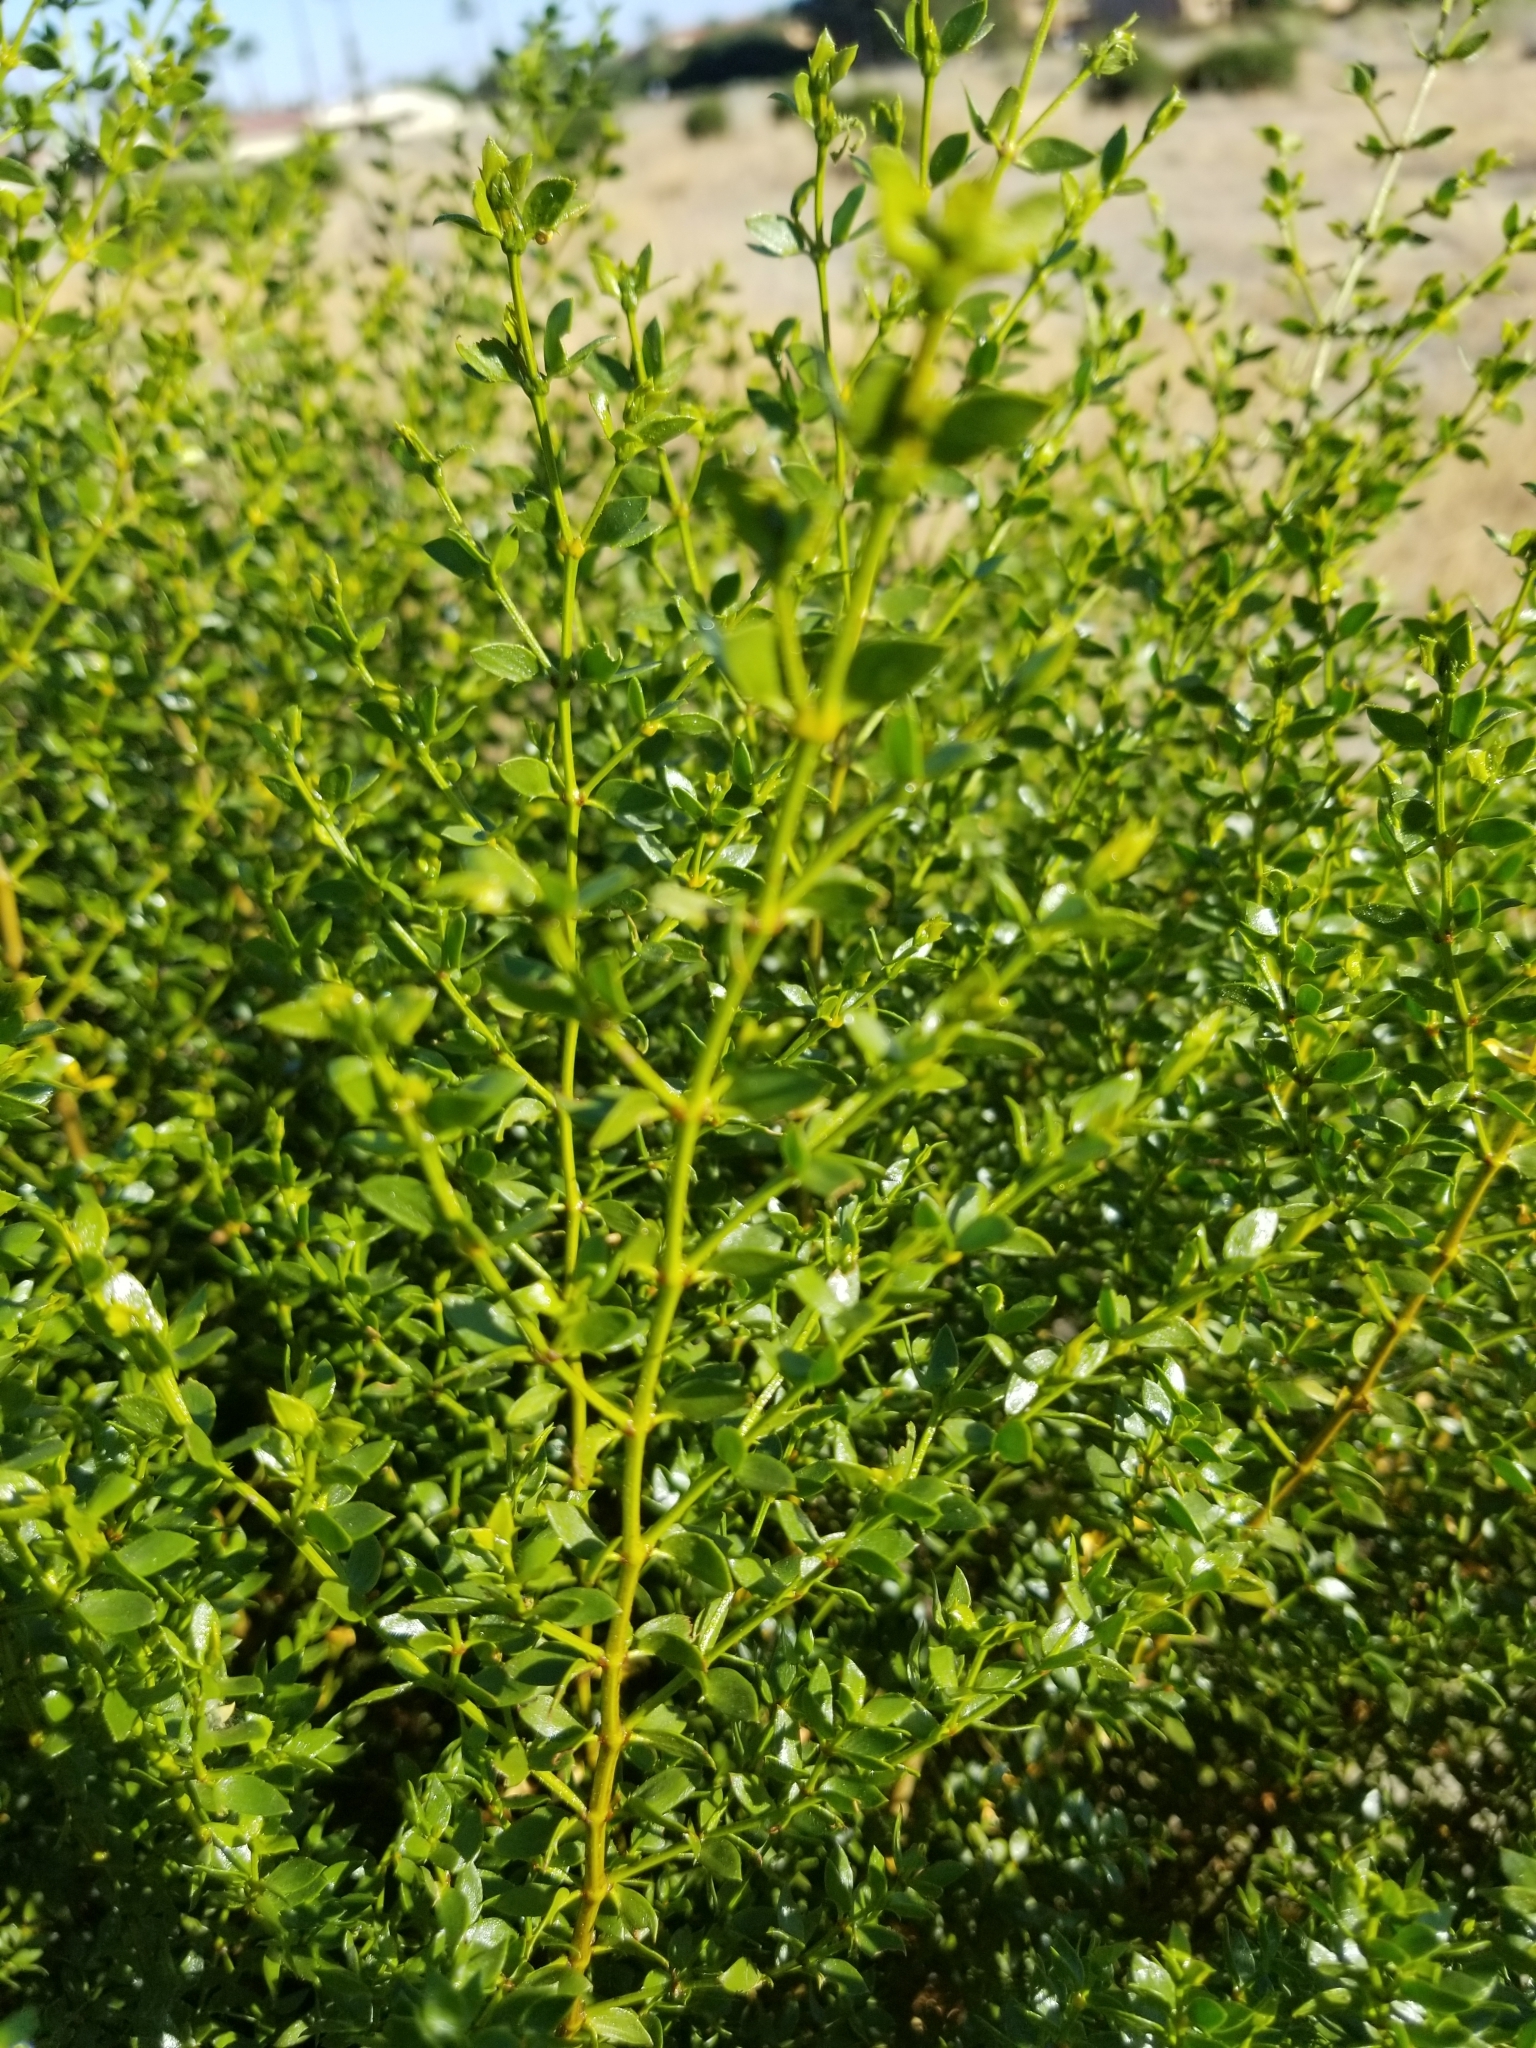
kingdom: Plantae
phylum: Tracheophyta
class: Magnoliopsida
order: Zygophyllales
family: Zygophyllaceae
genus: Larrea
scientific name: Larrea tridentata
